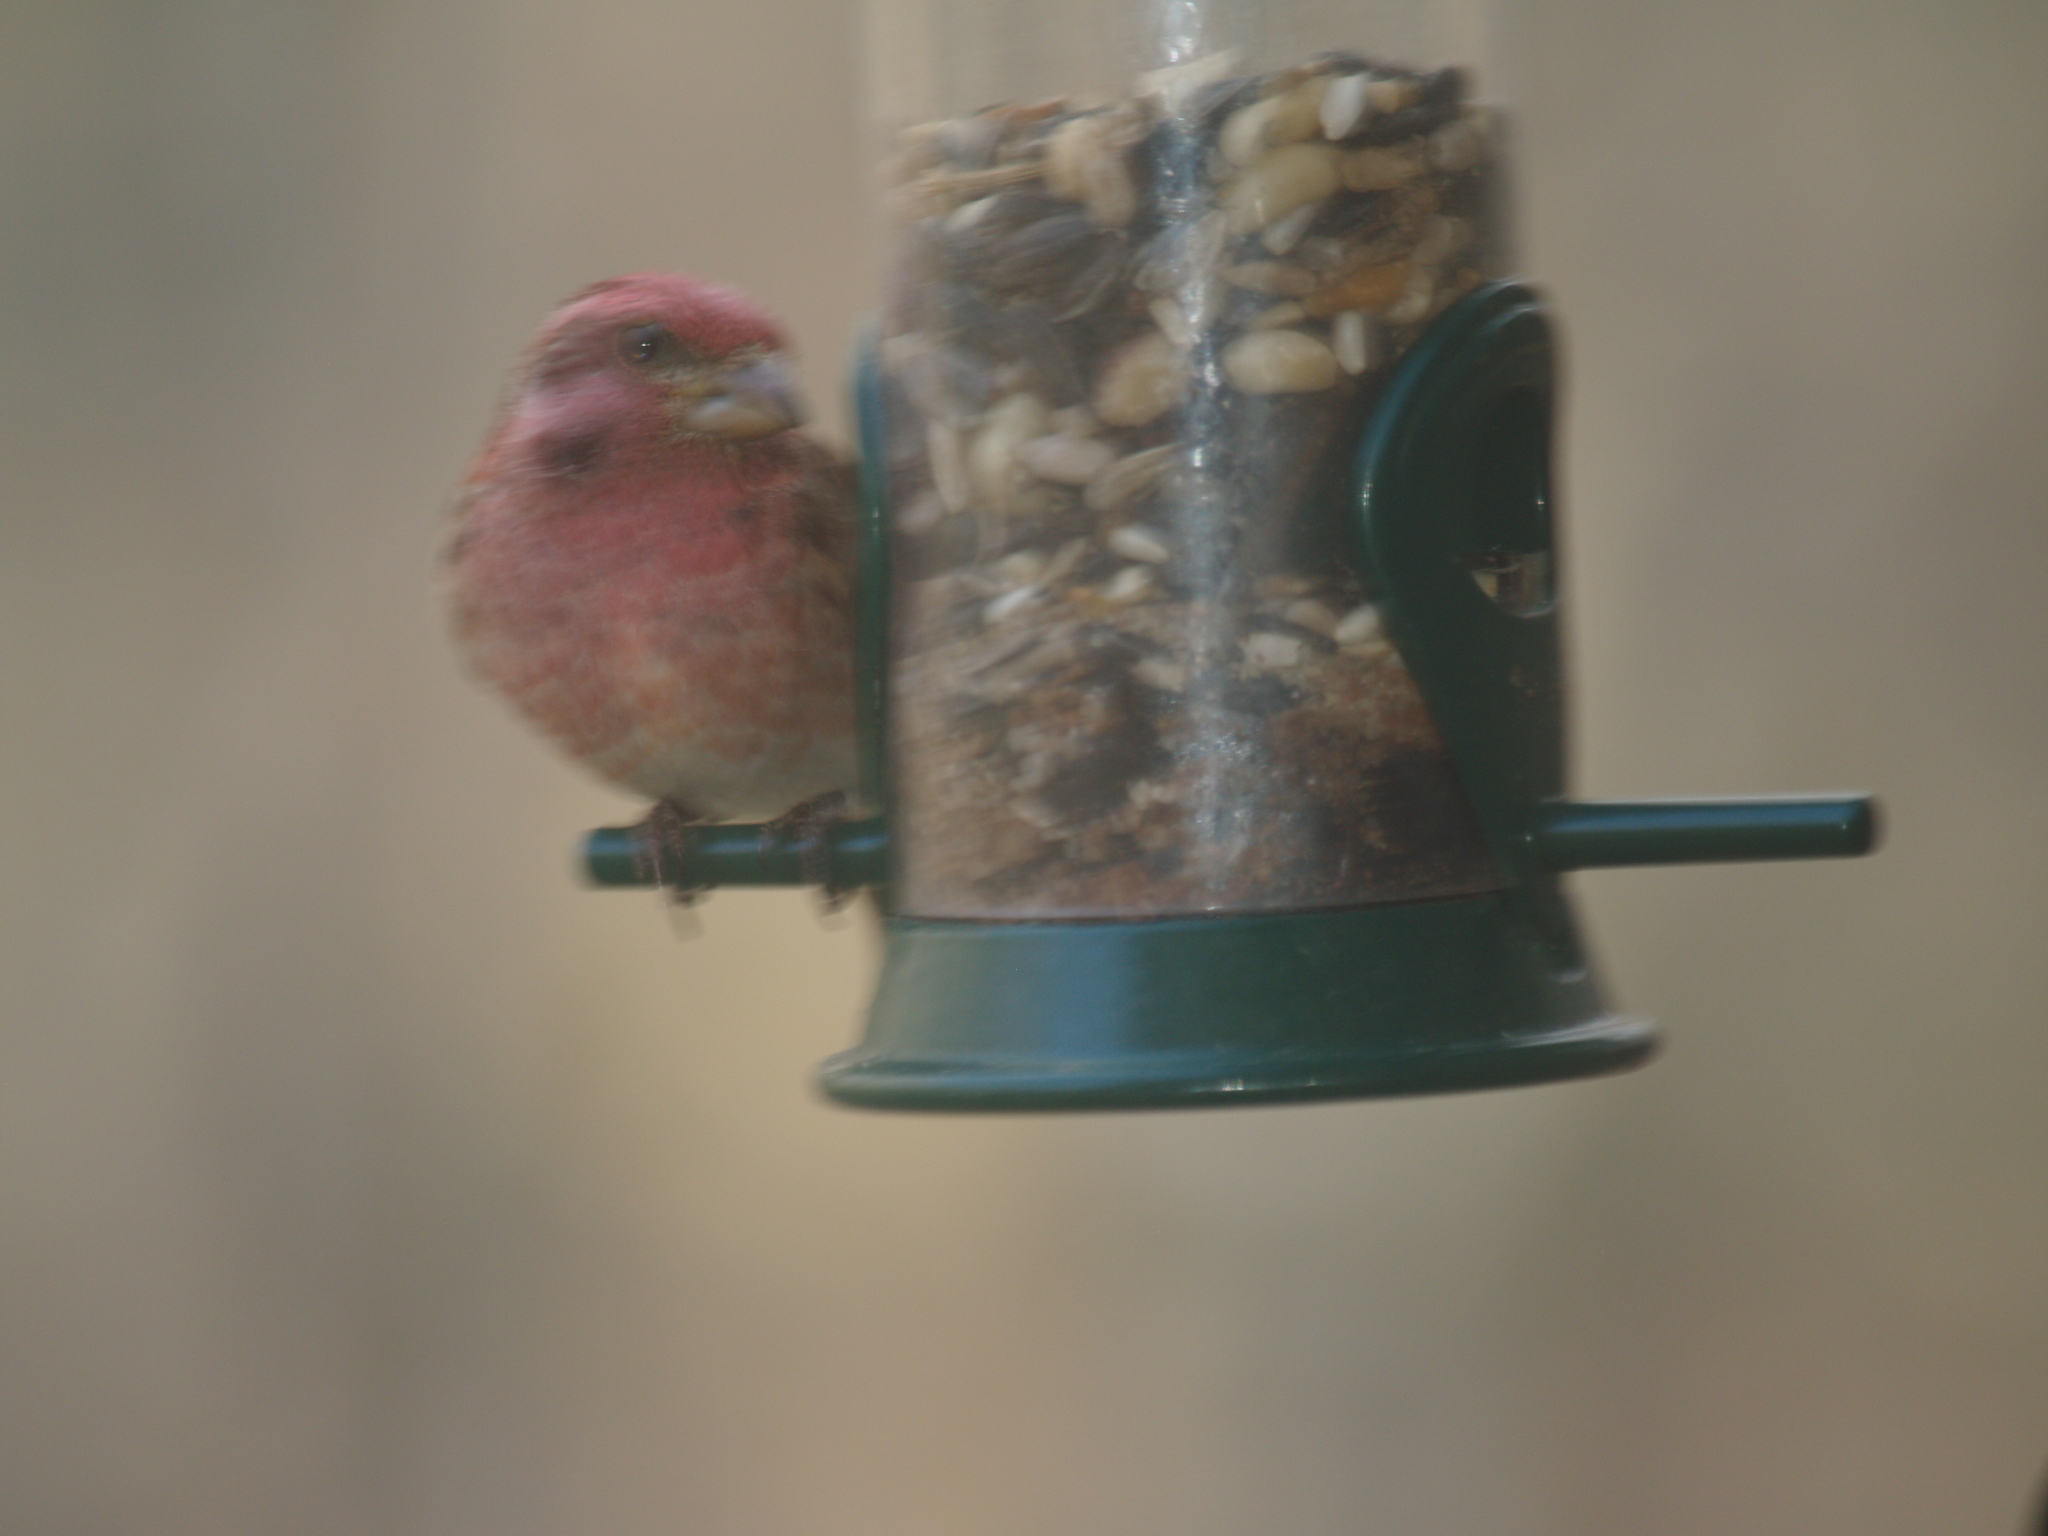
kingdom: Animalia
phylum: Chordata
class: Aves
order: Passeriformes
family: Fringillidae
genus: Haemorhous
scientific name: Haemorhous purpureus
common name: Purple finch
